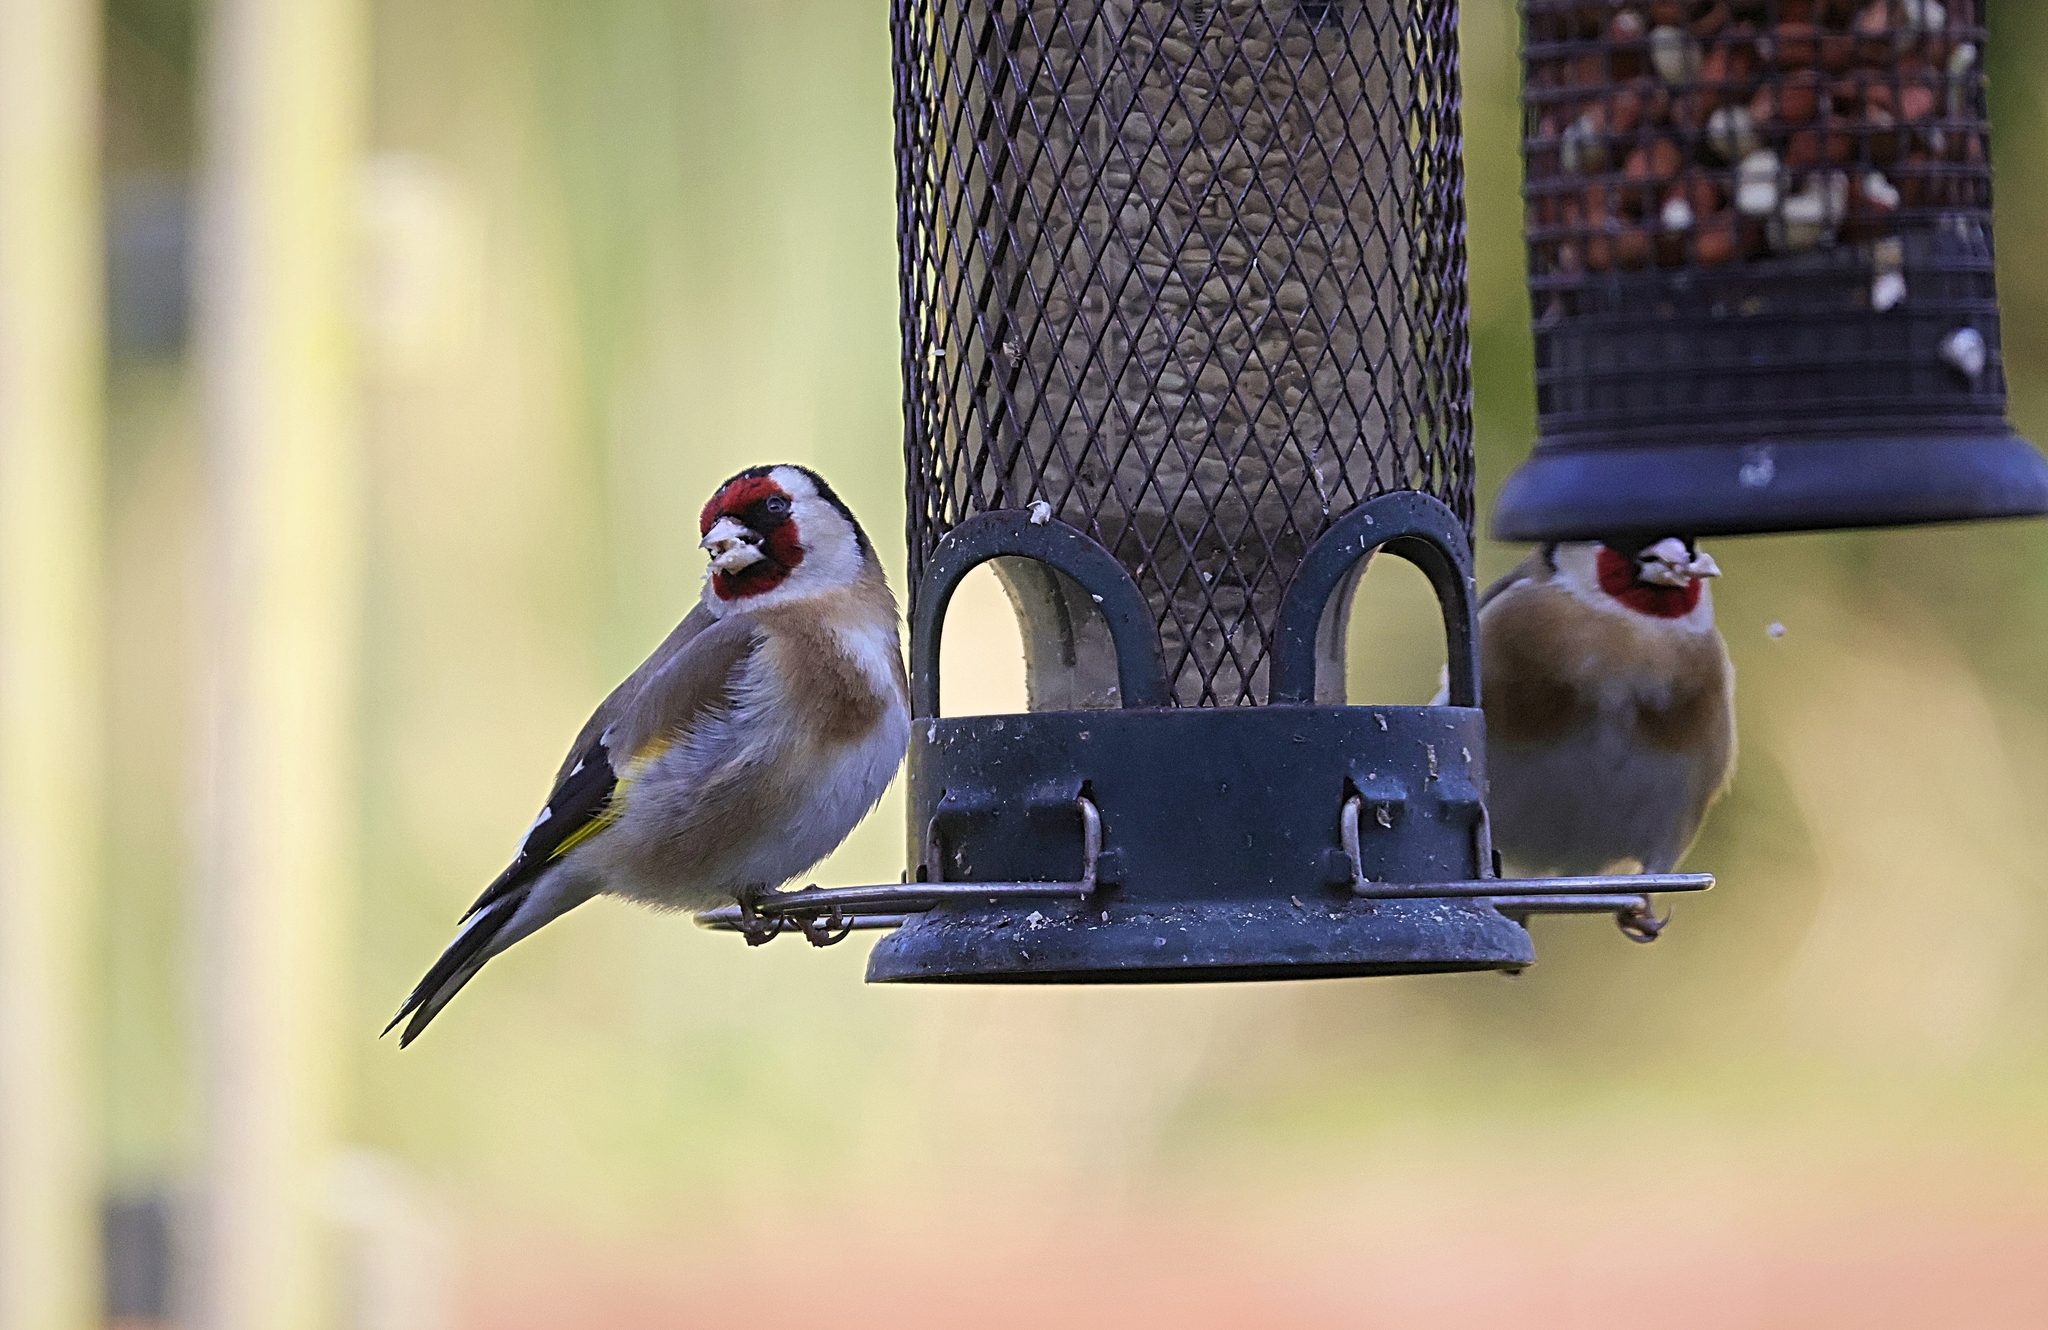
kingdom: Animalia
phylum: Chordata
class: Aves
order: Passeriformes
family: Fringillidae
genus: Carduelis
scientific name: Carduelis carduelis
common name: European goldfinch
